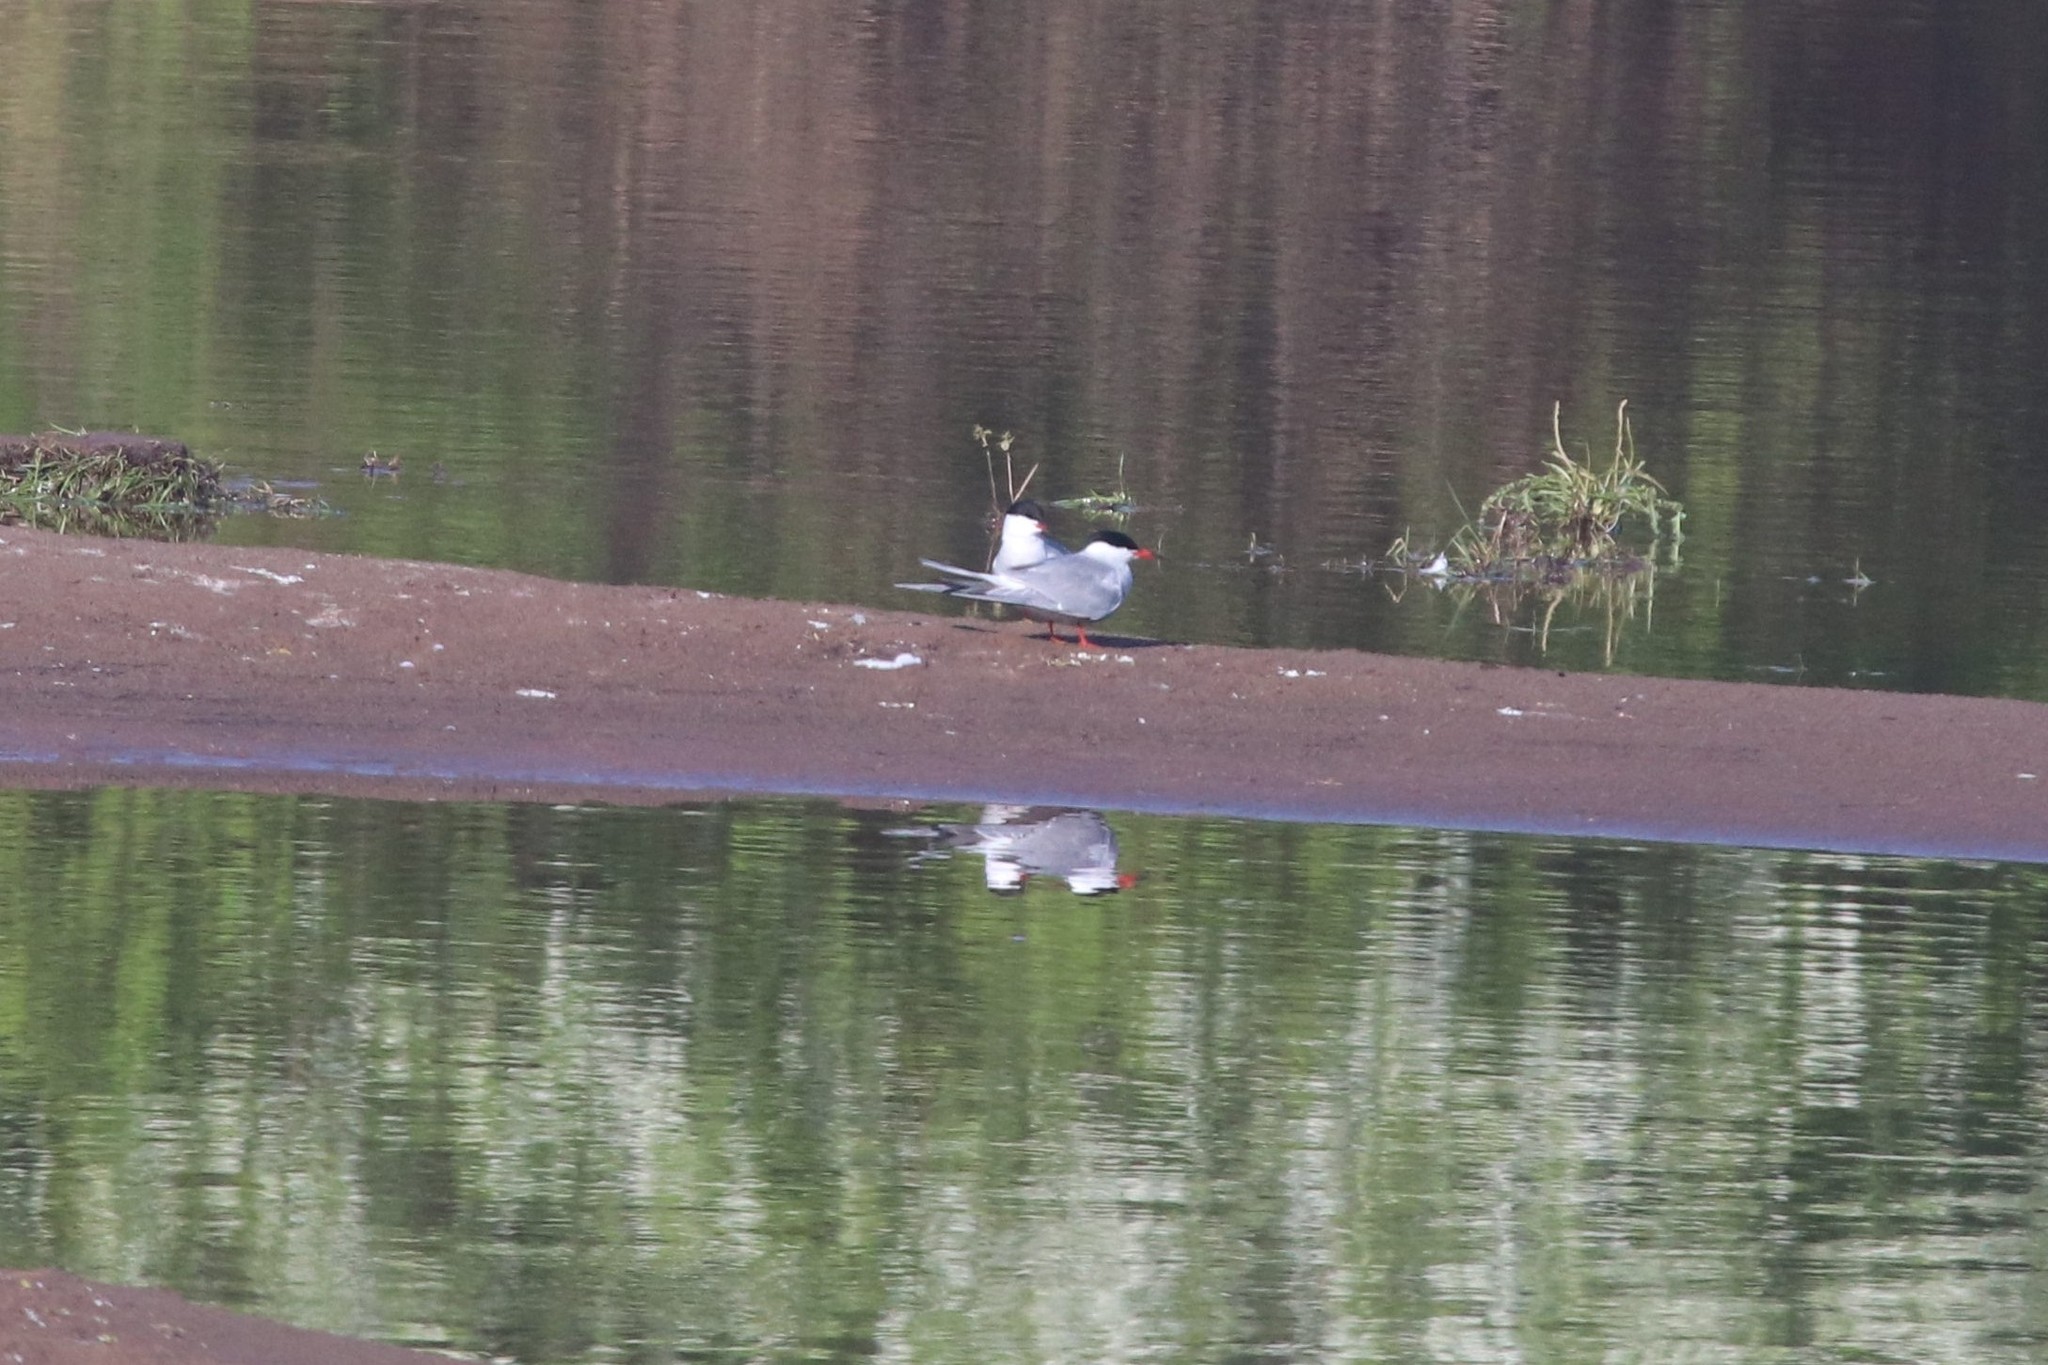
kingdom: Animalia
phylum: Chordata
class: Aves
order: Charadriiformes
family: Laridae
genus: Sterna
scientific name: Sterna hirundo
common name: Common tern
